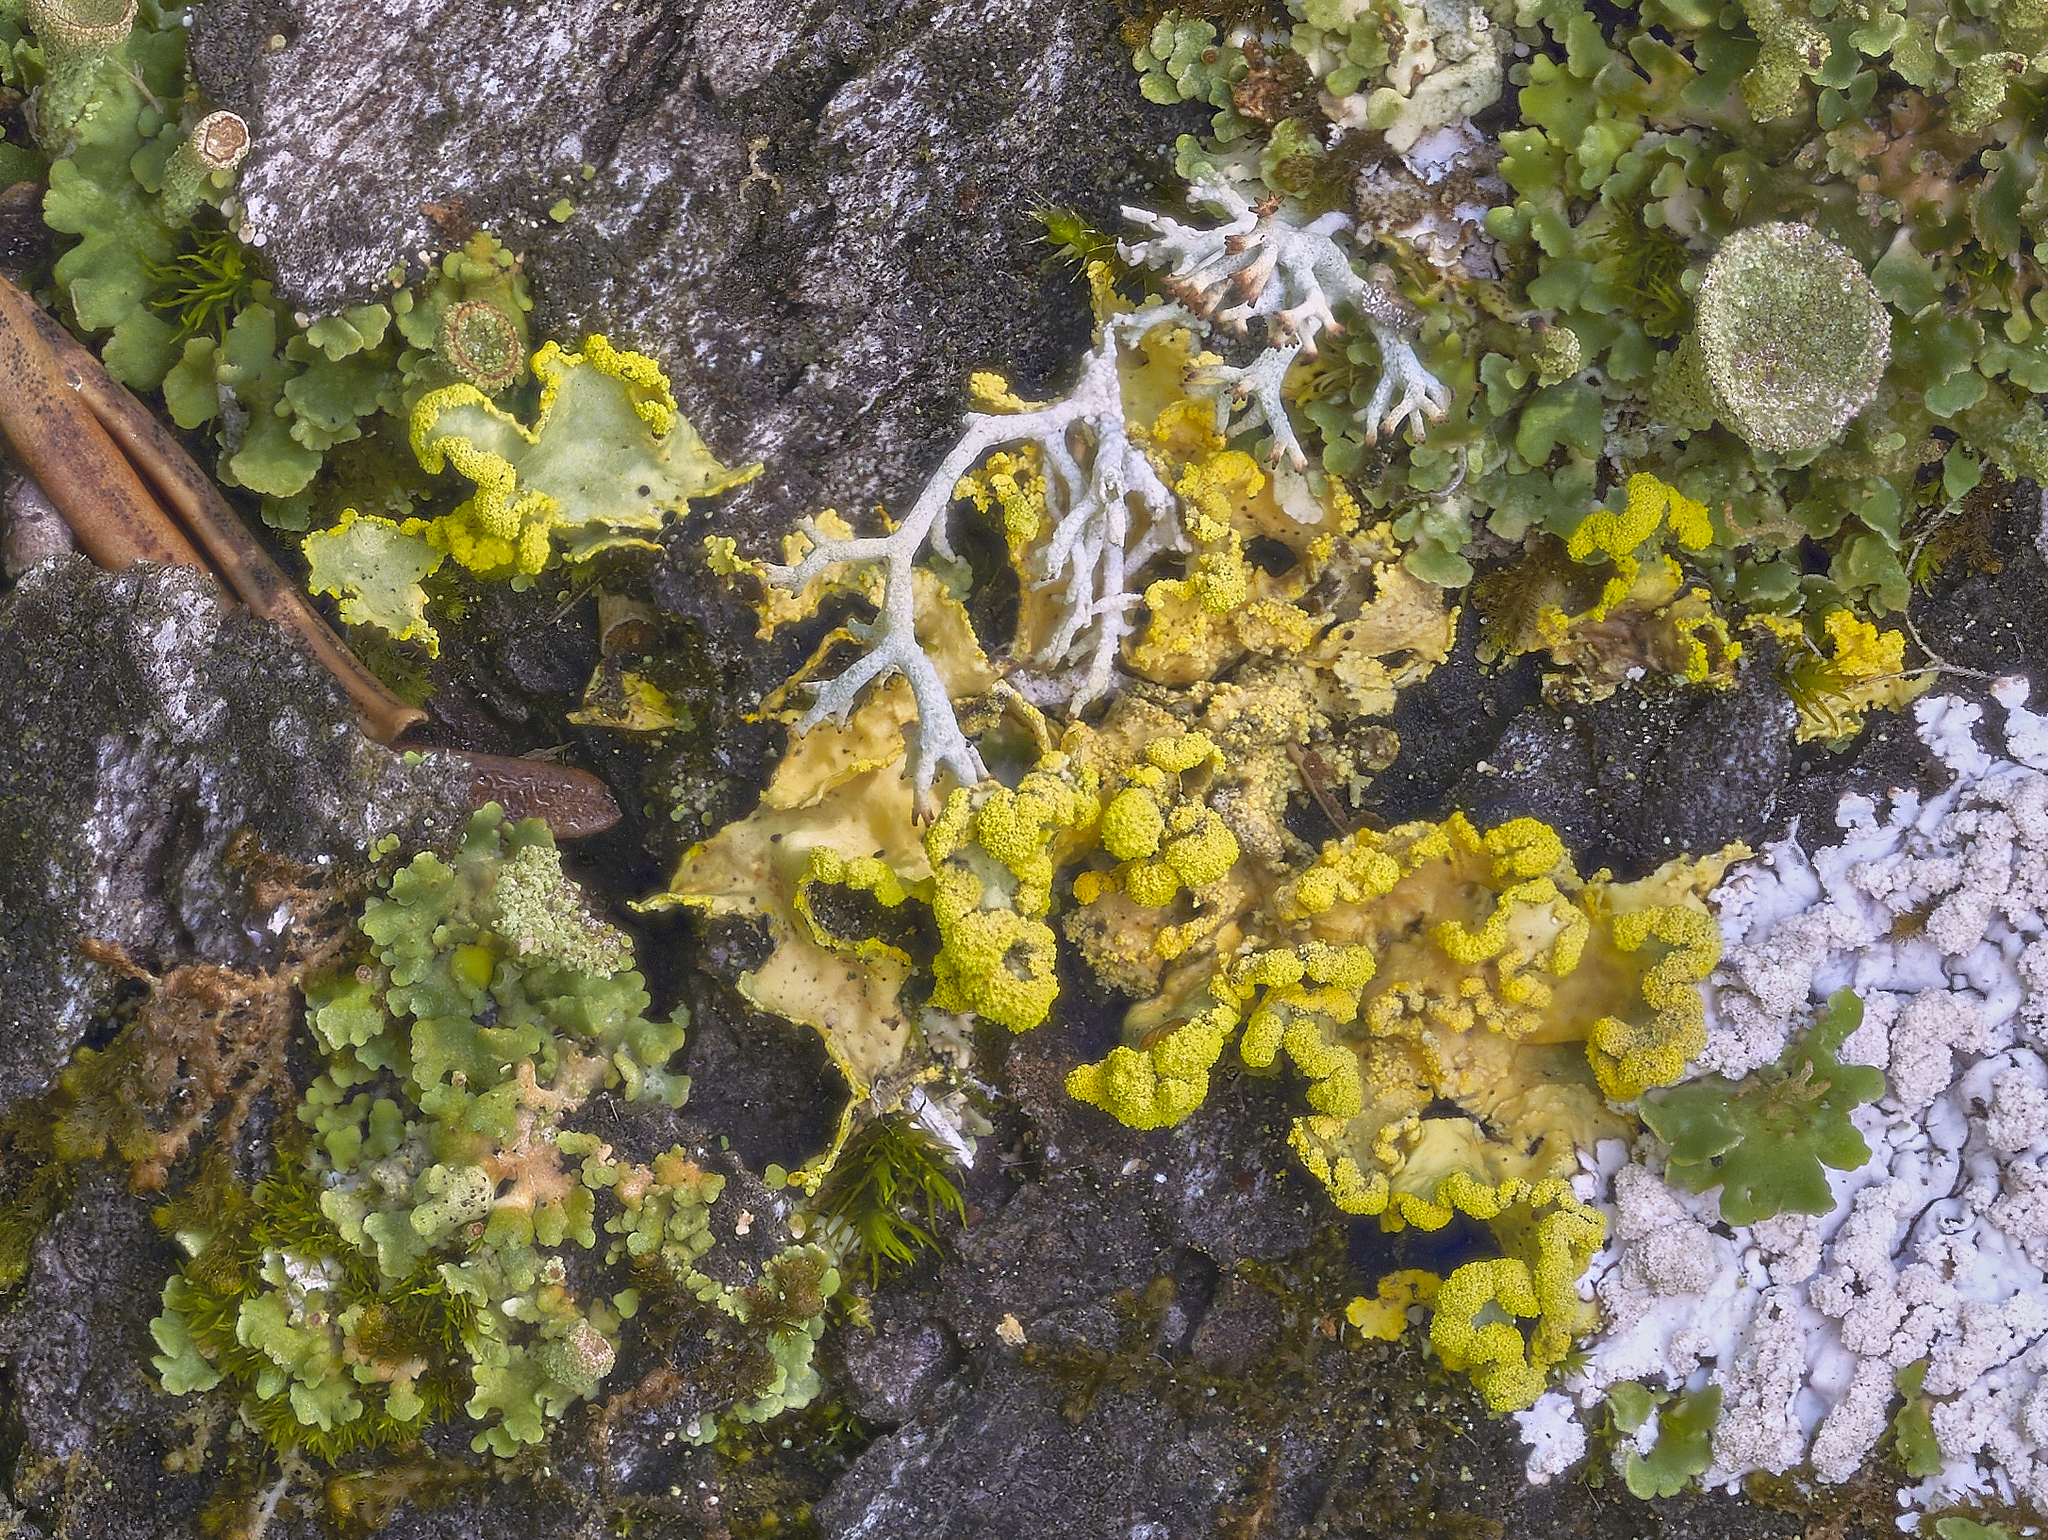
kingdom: Fungi
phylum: Ascomycota
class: Lecanoromycetes
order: Lecanorales
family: Parmeliaceae
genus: Vulpicida
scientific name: Vulpicida pinastri
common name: Powdered sunshine lichen
